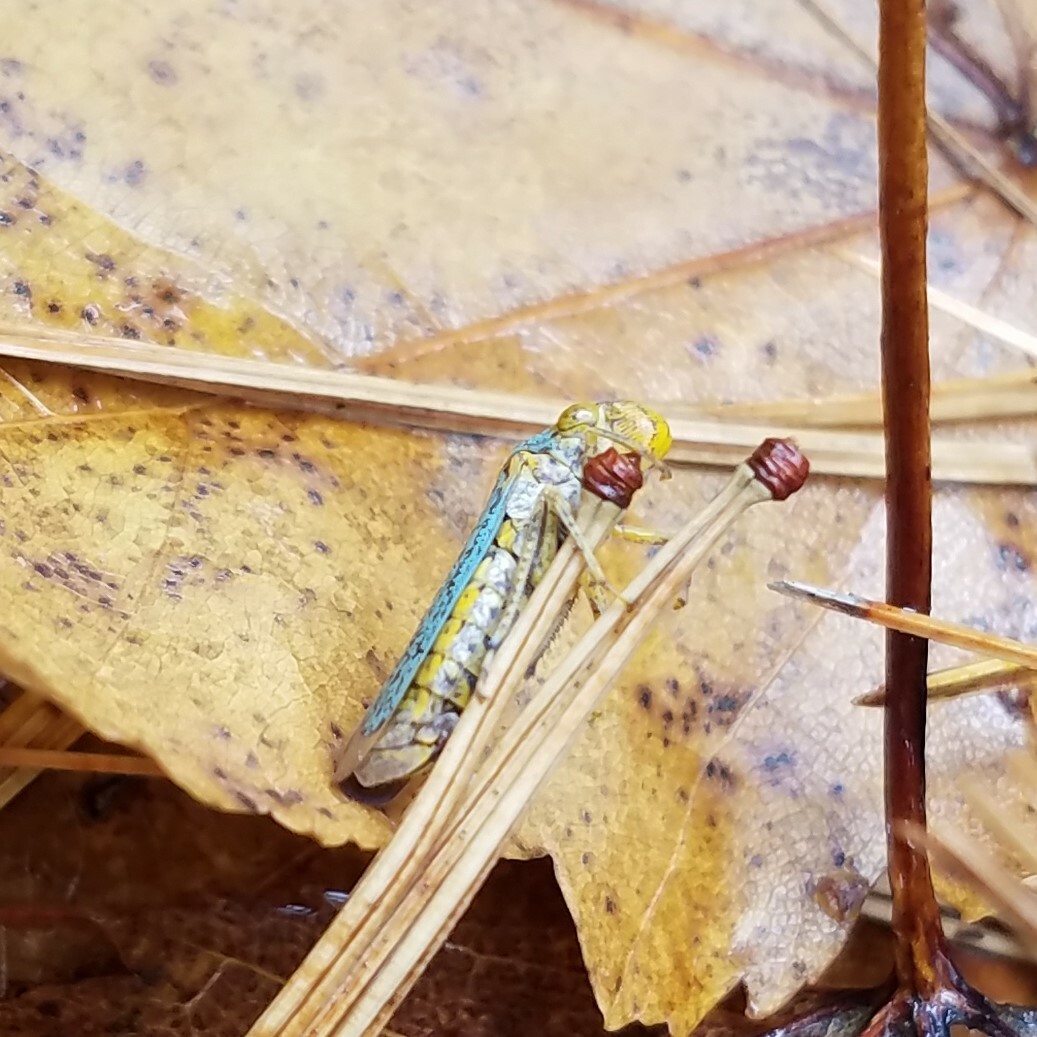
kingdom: Animalia
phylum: Arthropoda
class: Insecta
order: Hemiptera
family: Cicadellidae
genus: Oncometopia
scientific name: Oncometopia orbona
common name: Broad-headed sharpshooter
